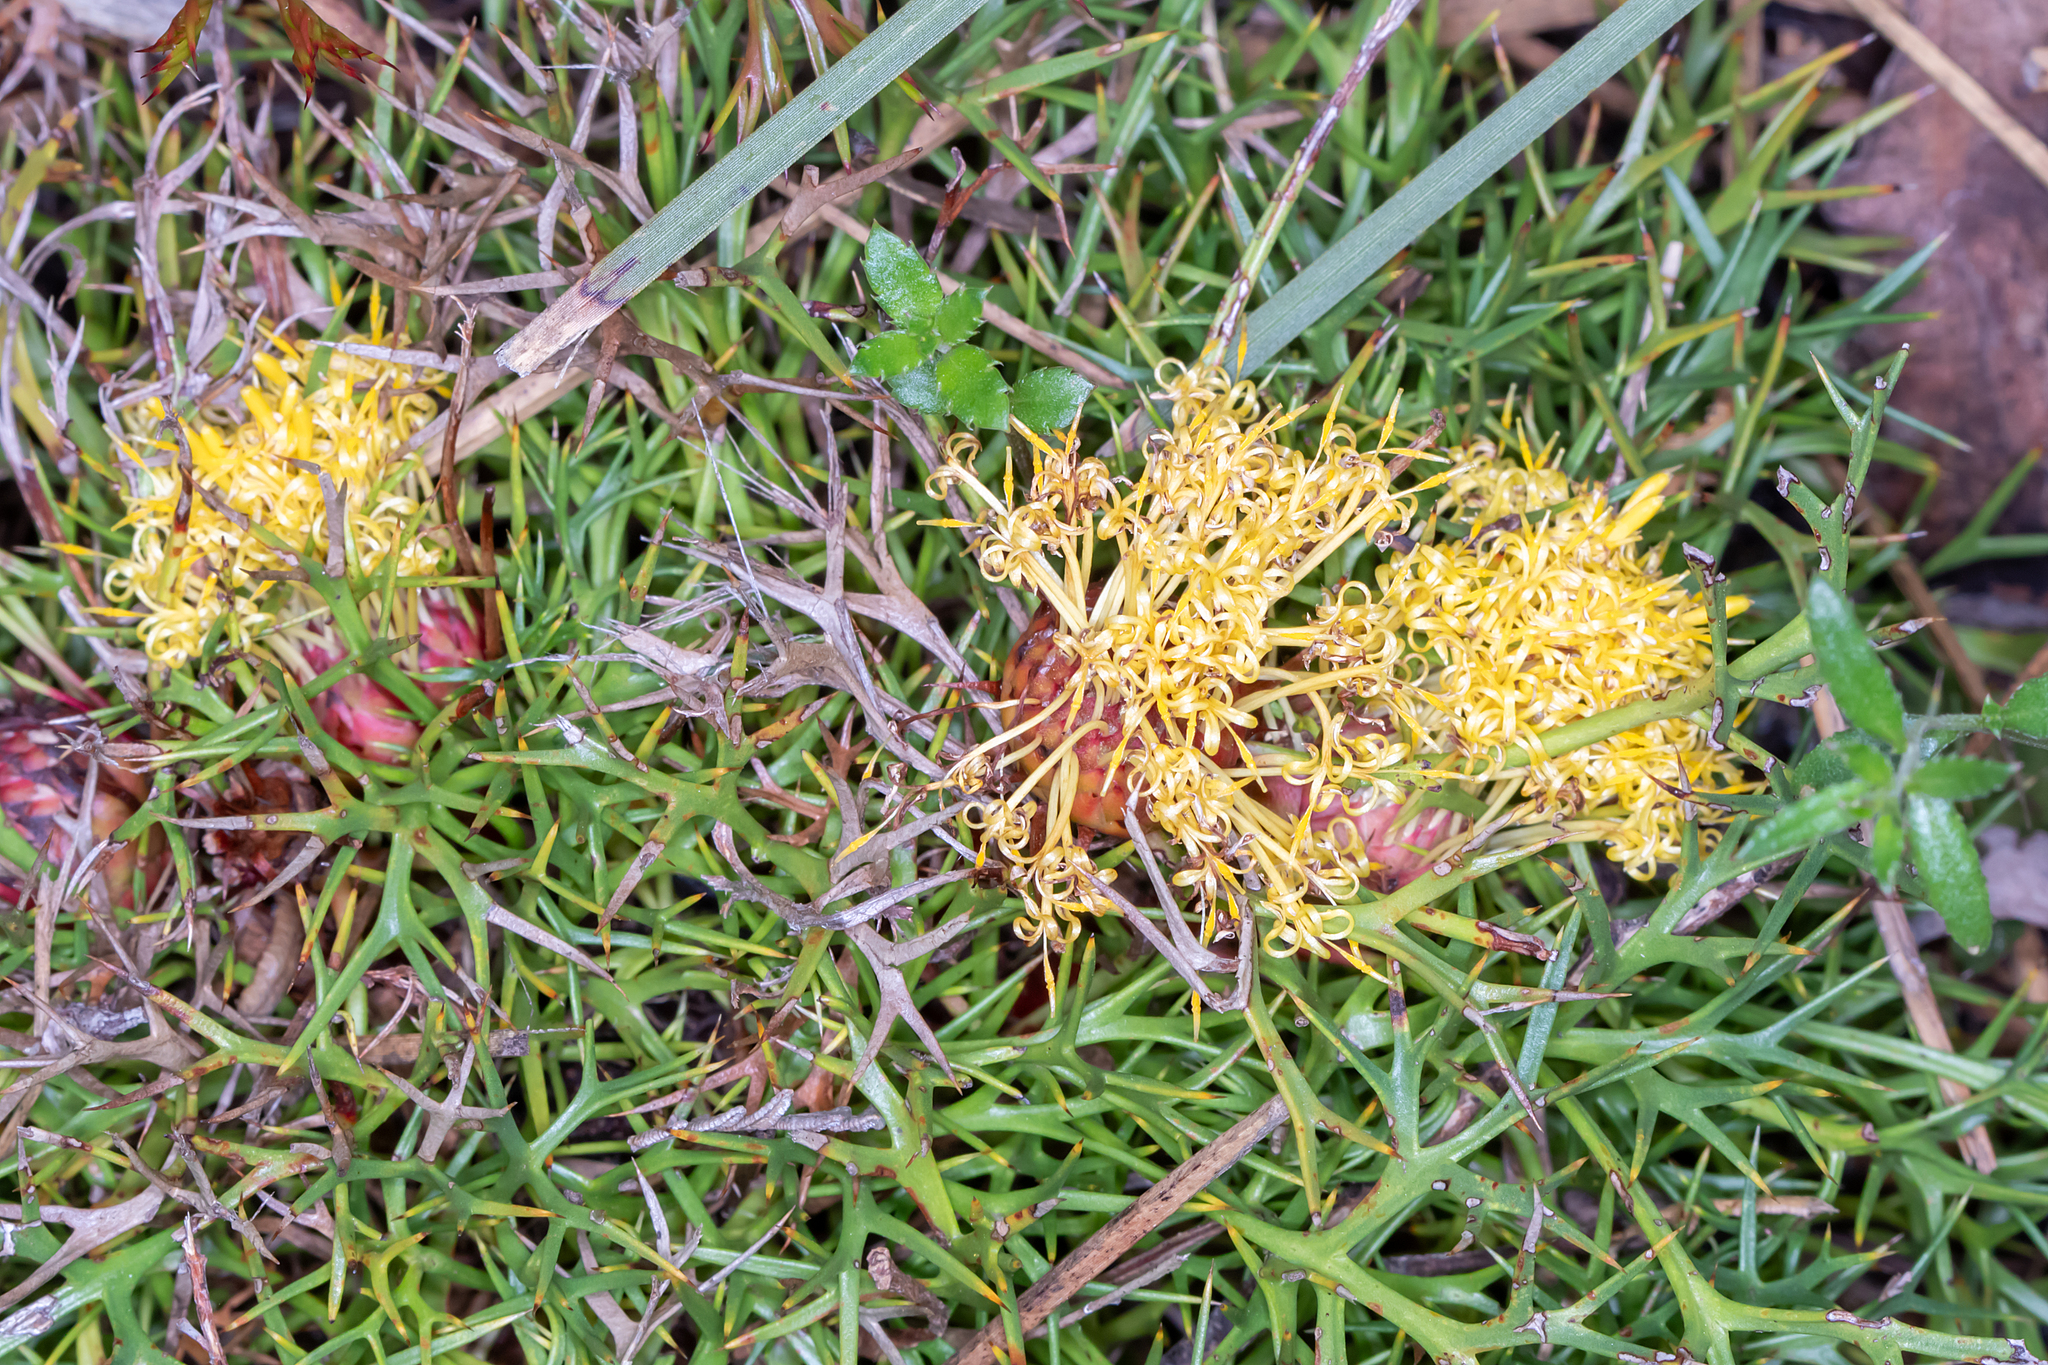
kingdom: Plantae
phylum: Tracheophyta
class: Magnoliopsida
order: Proteales
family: Proteaceae
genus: Isopogon
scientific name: Isopogon ceratophyllus
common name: Horny cone-bush
